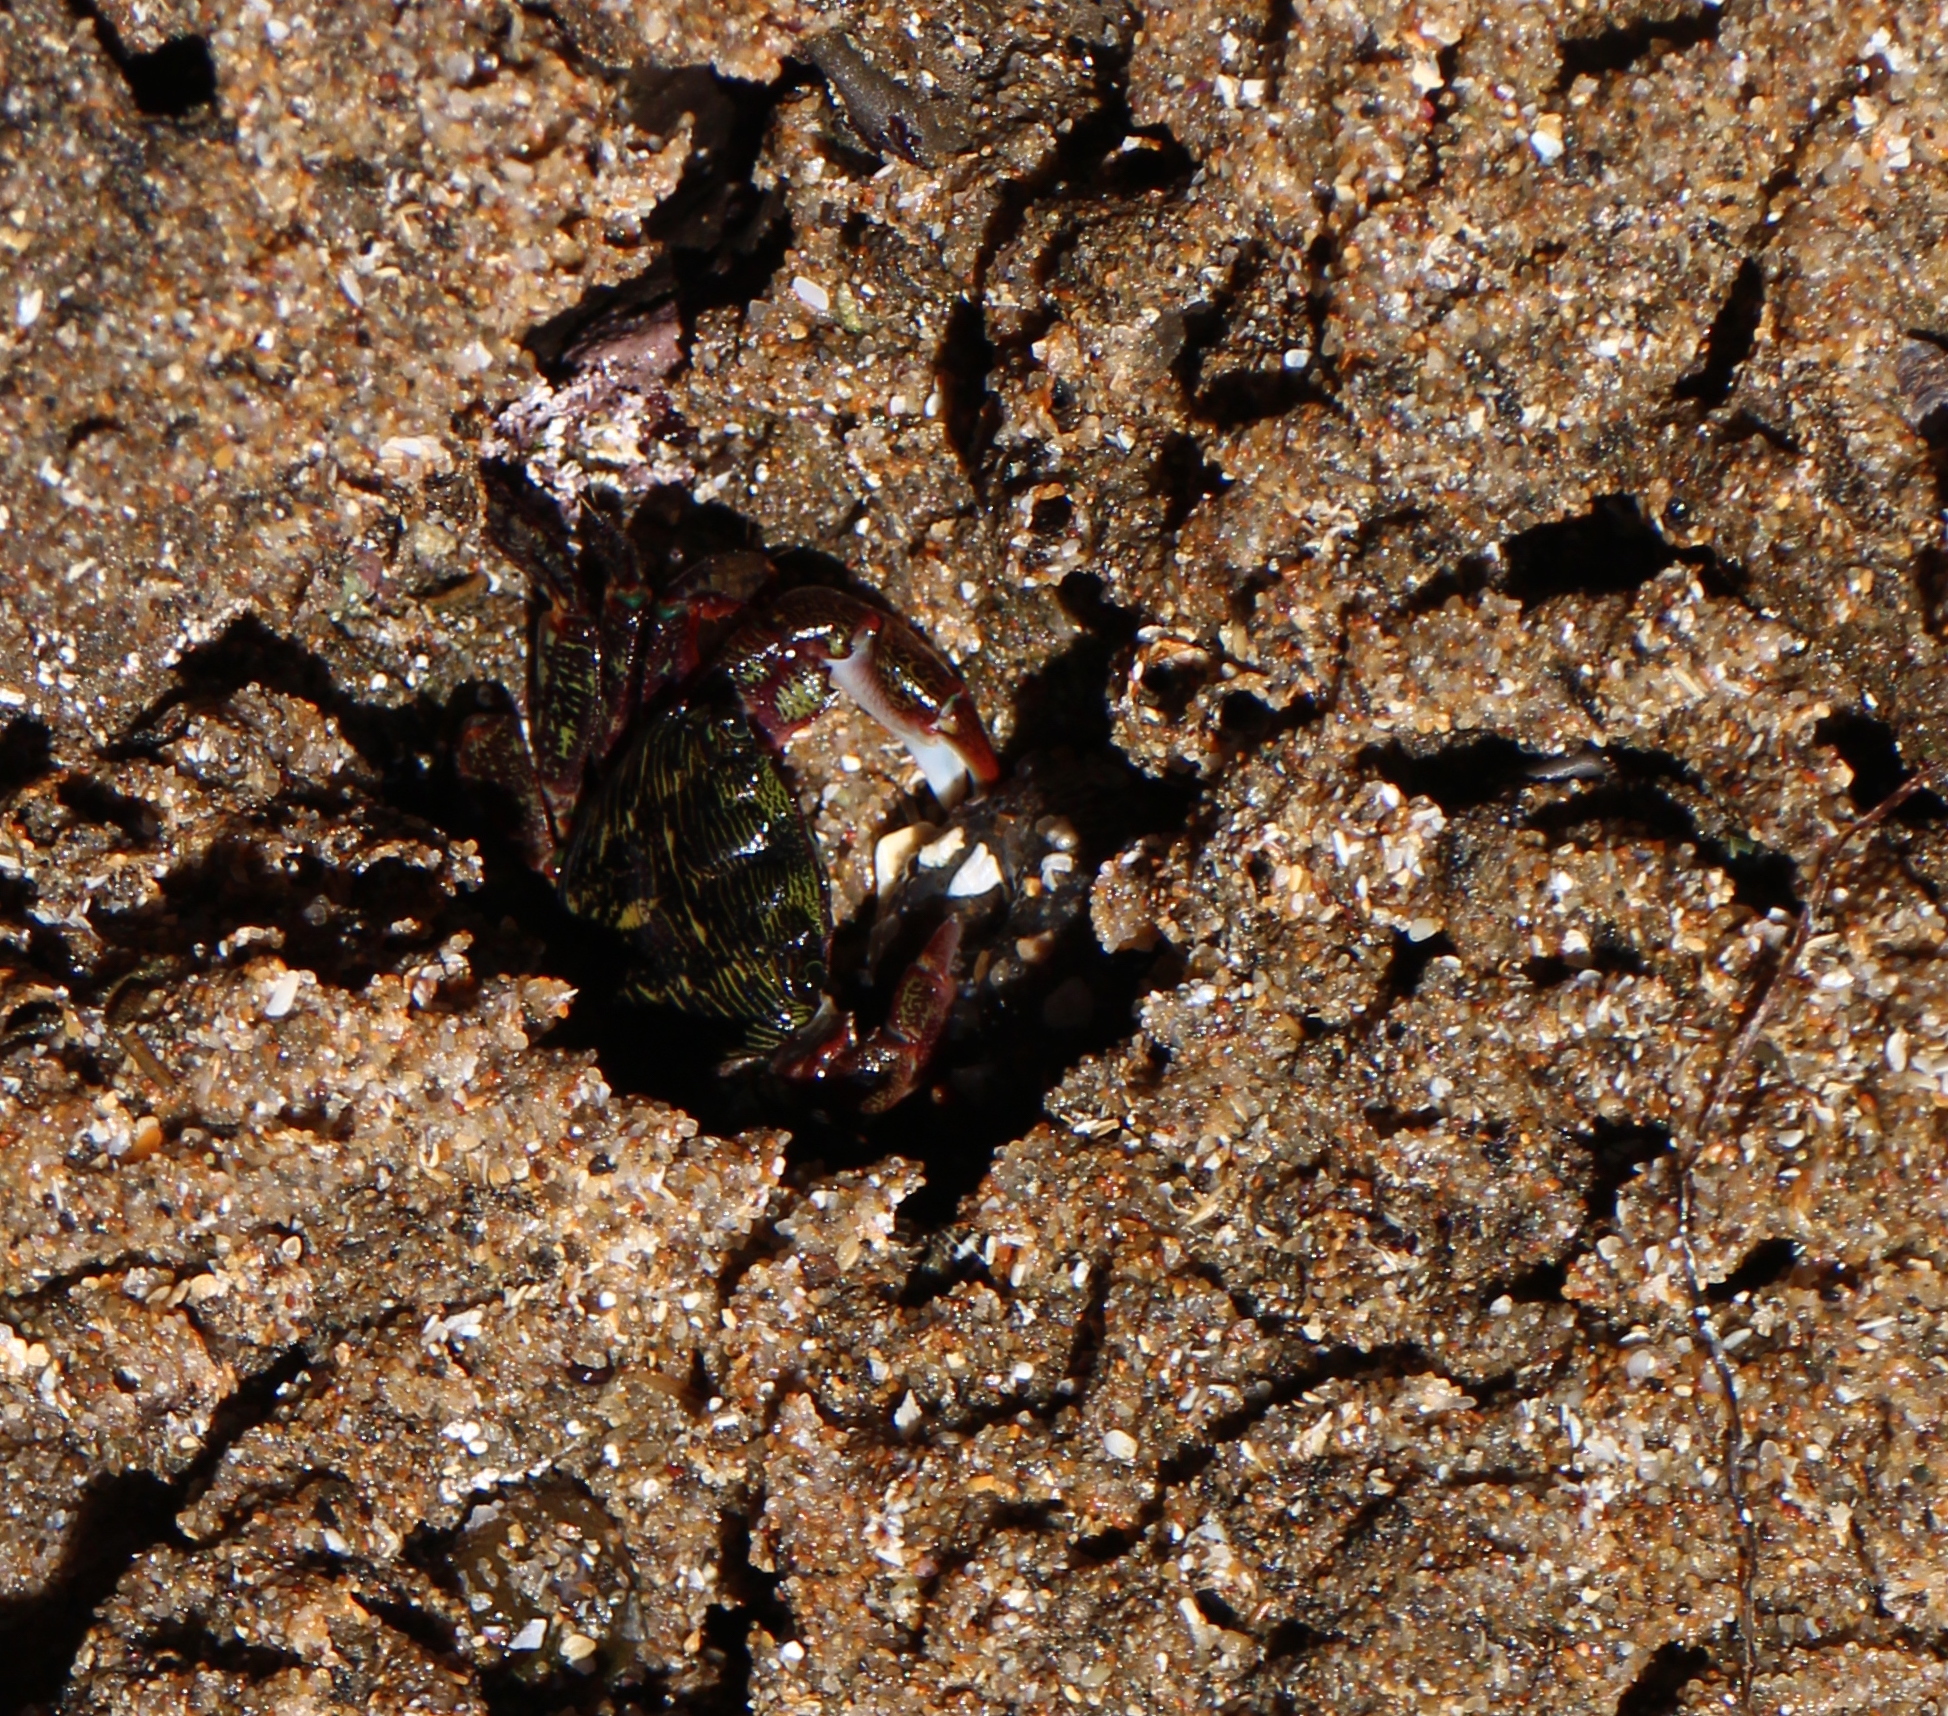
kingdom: Animalia
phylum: Arthropoda
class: Malacostraca
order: Decapoda
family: Grapsidae
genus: Pachygrapsus
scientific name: Pachygrapsus crassipes
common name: Striped shore crab
